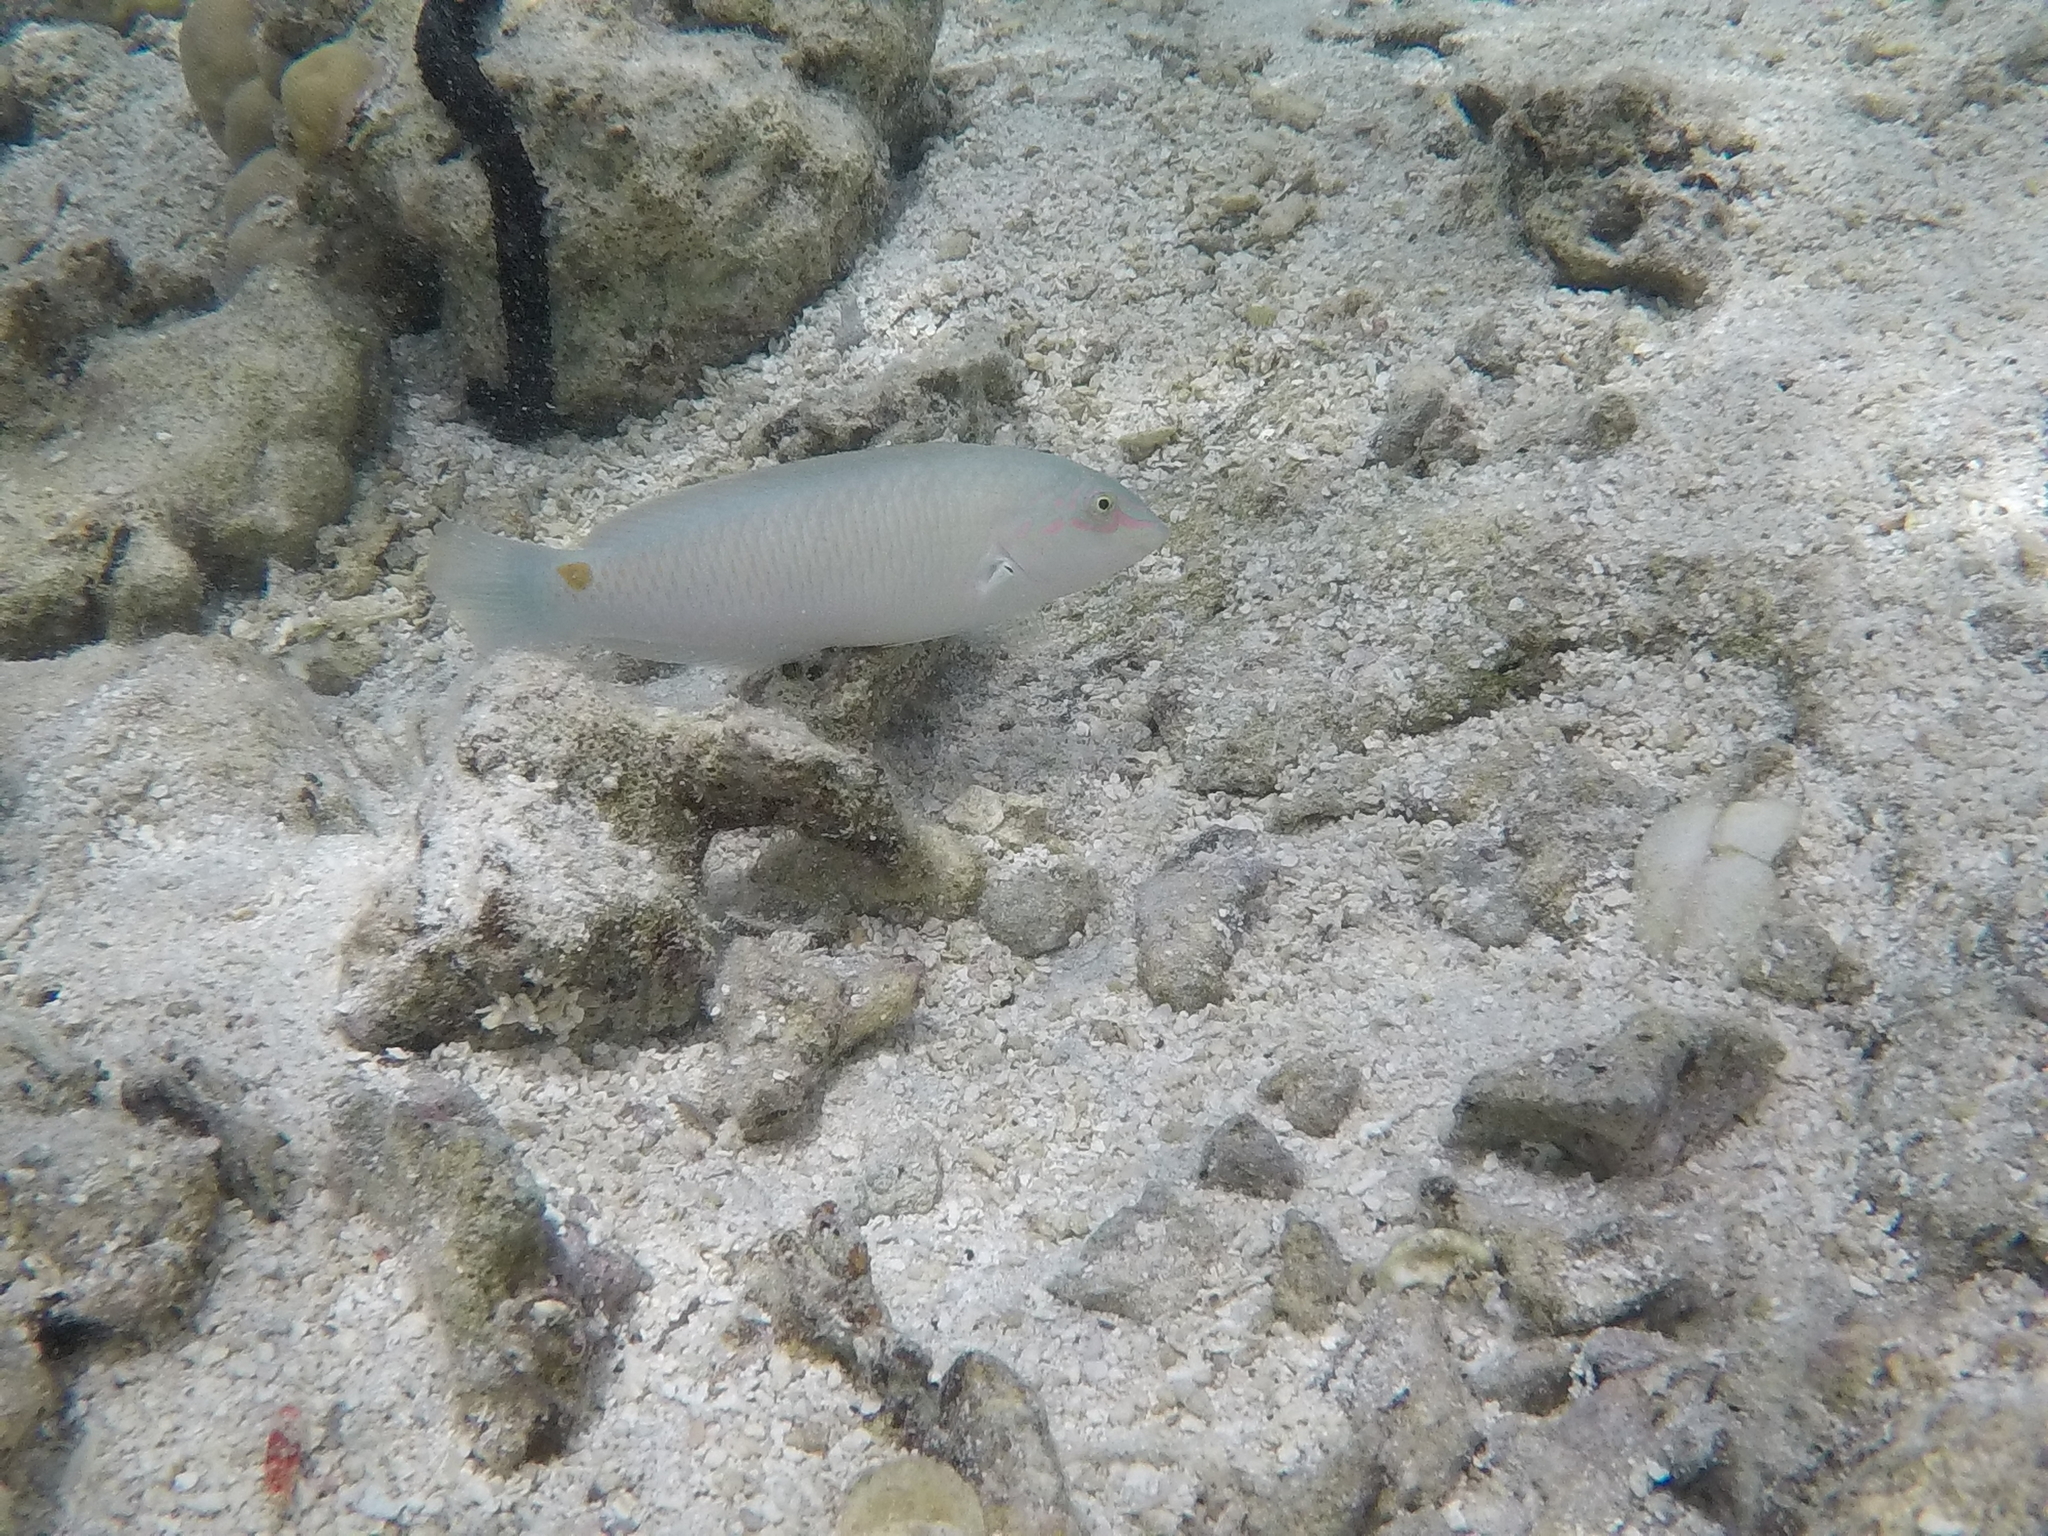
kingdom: Animalia
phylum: Chordata
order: Perciformes
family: Labridae
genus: Halichoeres
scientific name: Halichoeres trimaculatus
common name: Three-spot wrasse
